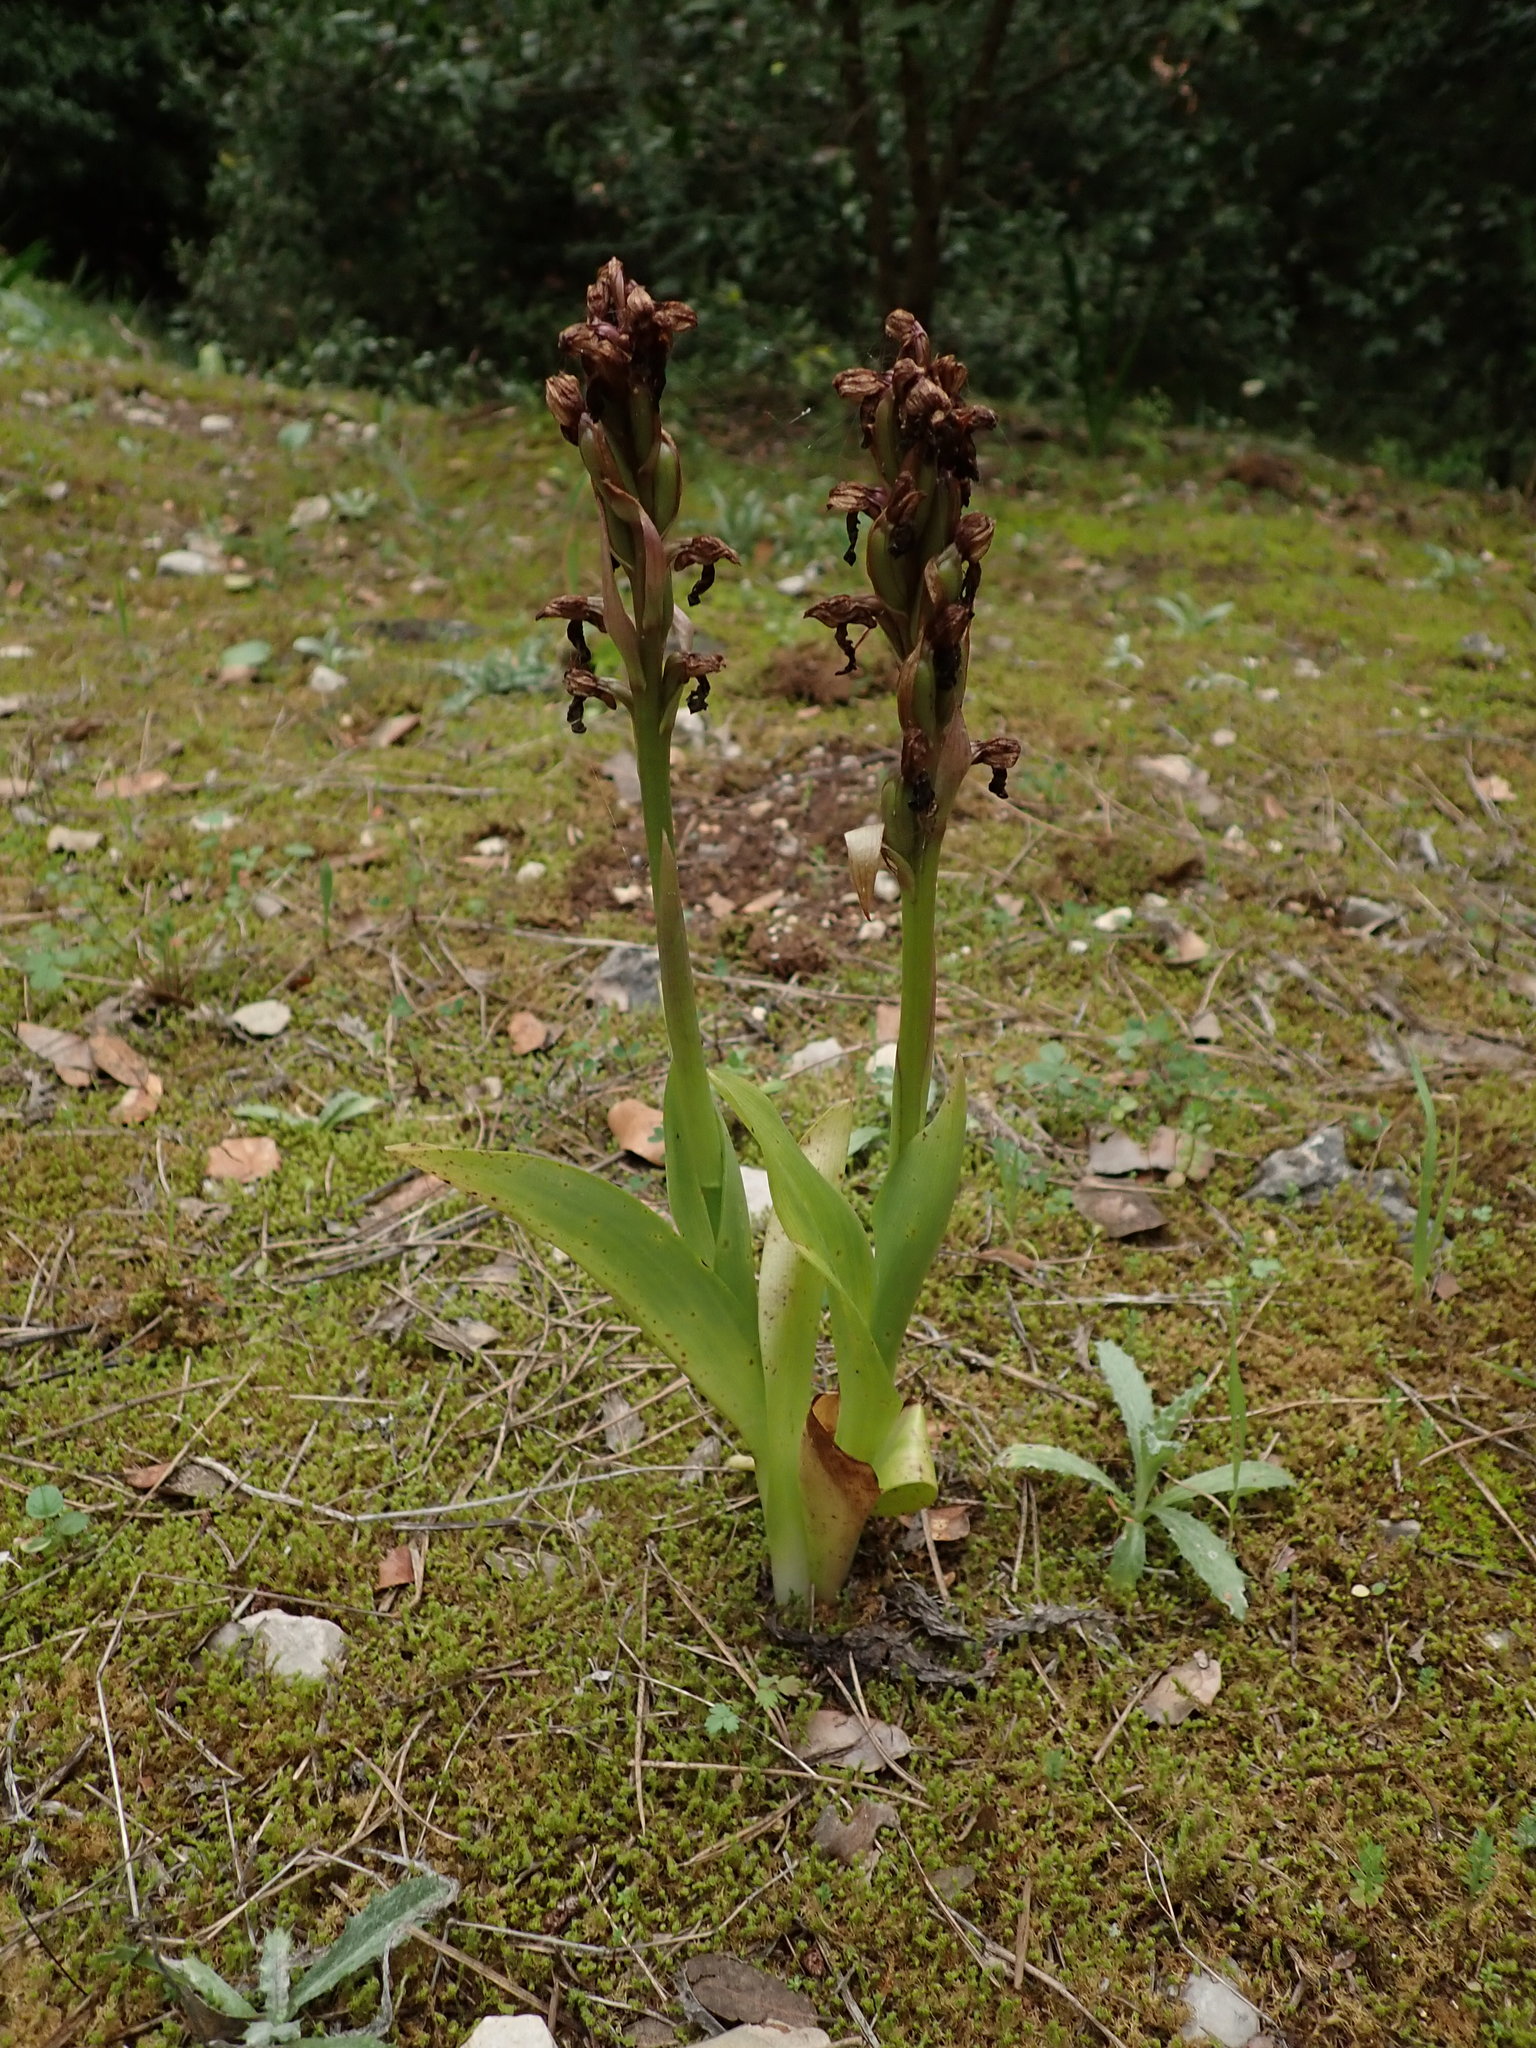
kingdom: Plantae
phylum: Tracheophyta
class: Liliopsida
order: Asparagales
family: Orchidaceae
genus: Himantoglossum
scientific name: Himantoglossum robertianum
